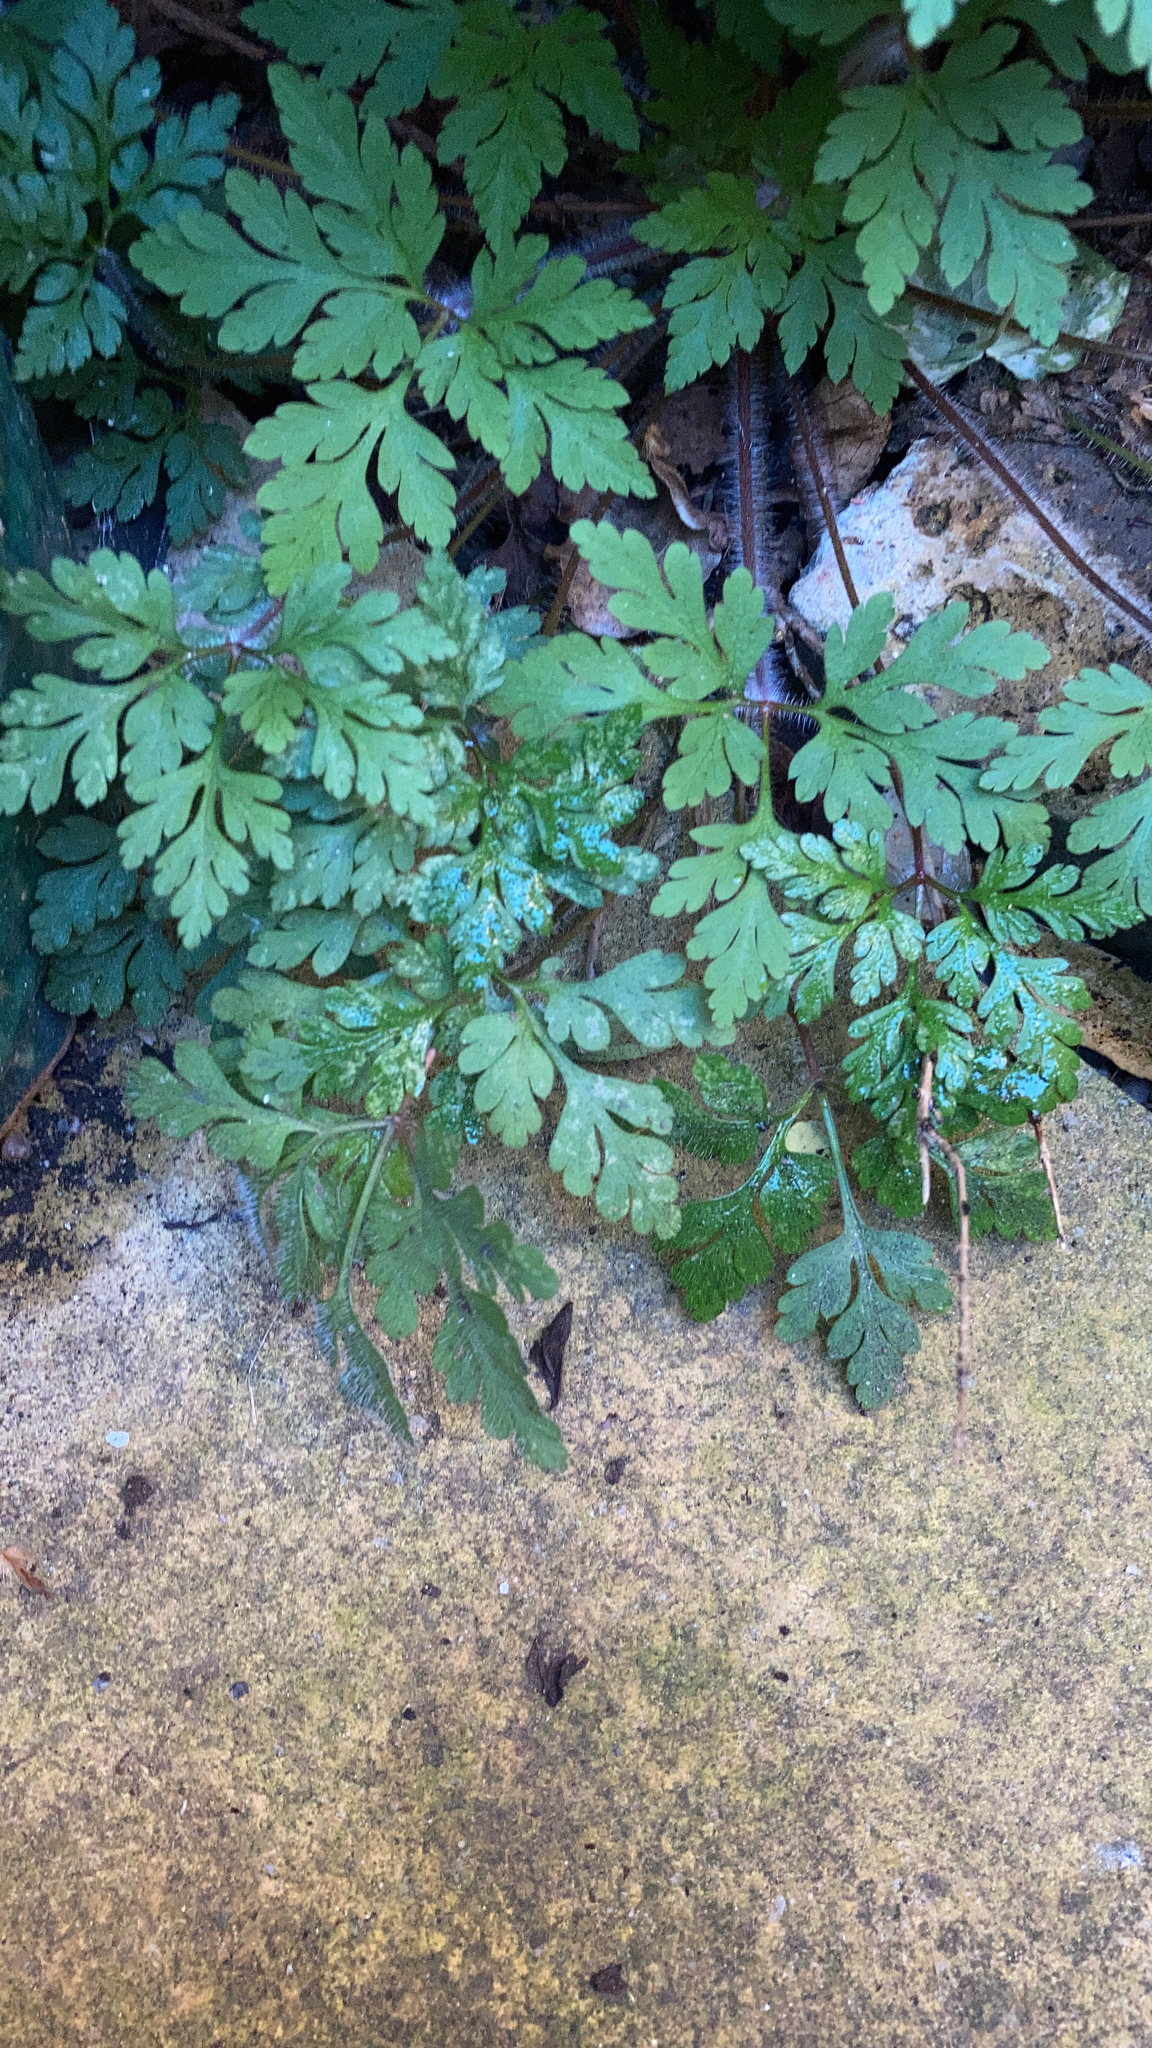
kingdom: Plantae
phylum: Tracheophyta
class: Magnoliopsida
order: Geraniales
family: Geraniaceae
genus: Geranium
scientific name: Geranium robertianum
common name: Herb-robert
